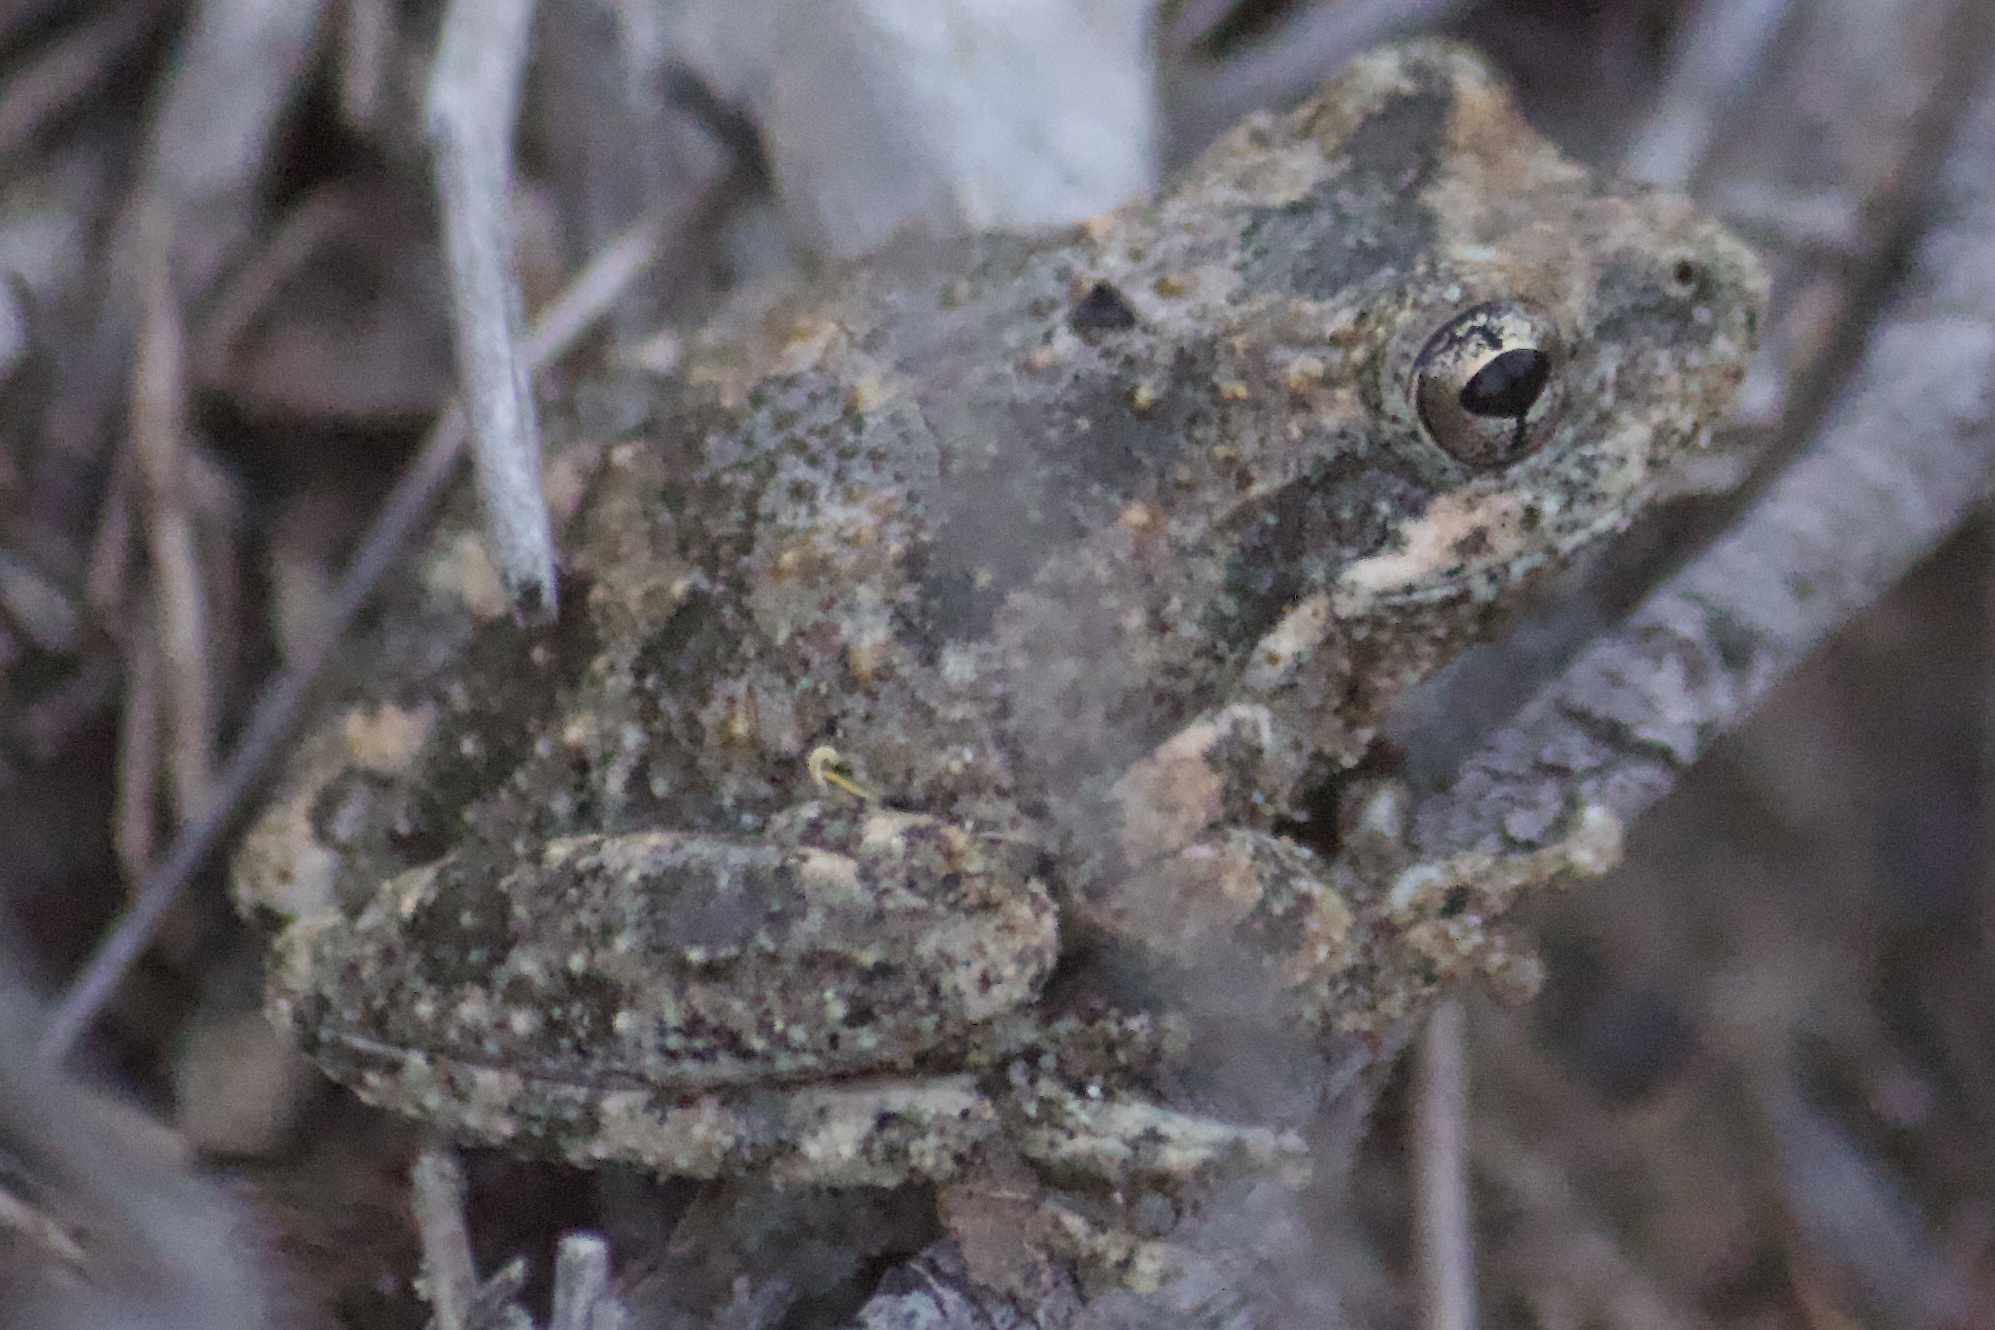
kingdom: Animalia
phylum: Chordata
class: Amphibia
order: Anura
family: Hylidae
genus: Pseudacris
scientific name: Pseudacris cadaverina
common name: California chorus frog
